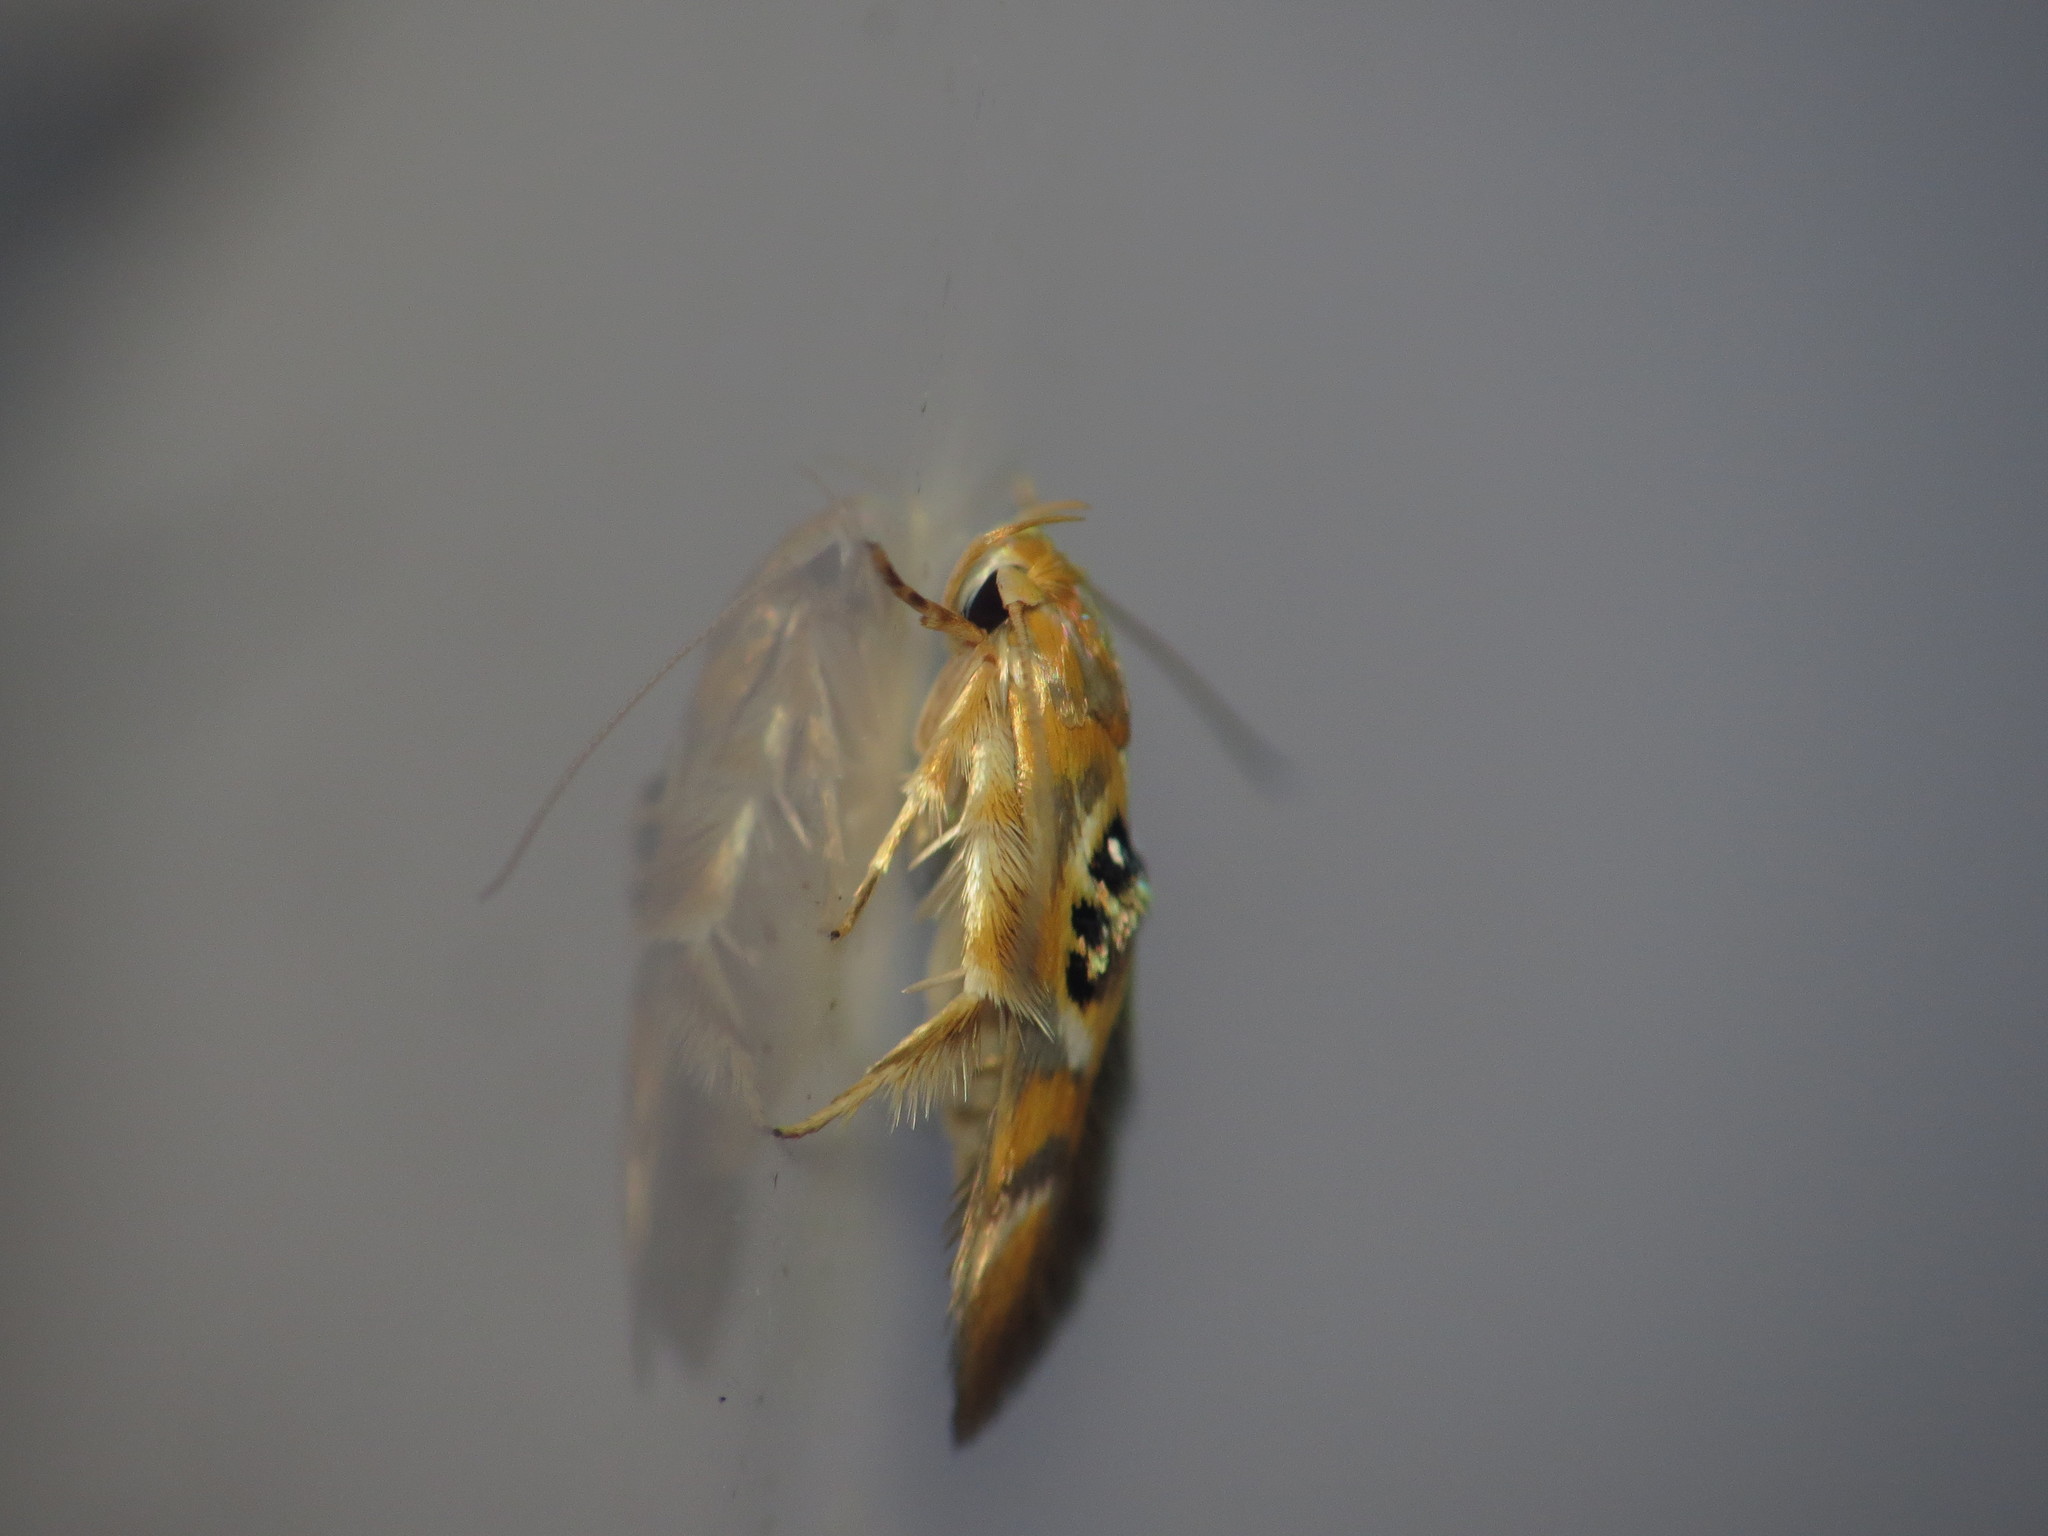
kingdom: Animalia
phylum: Arthropoda
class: Insecta
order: Lepidoptera
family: Stathmopodidae
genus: Hieromantis
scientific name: Hieromantis ephodophora
